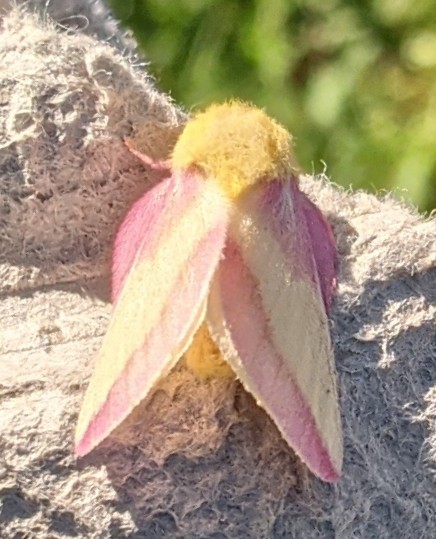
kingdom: Animalia
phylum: Arthropoda
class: Insecta
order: Lepidoptera
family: Saturniidae
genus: Dryocampa
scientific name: Dryocampa rubicunda
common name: Rosy maple moth
